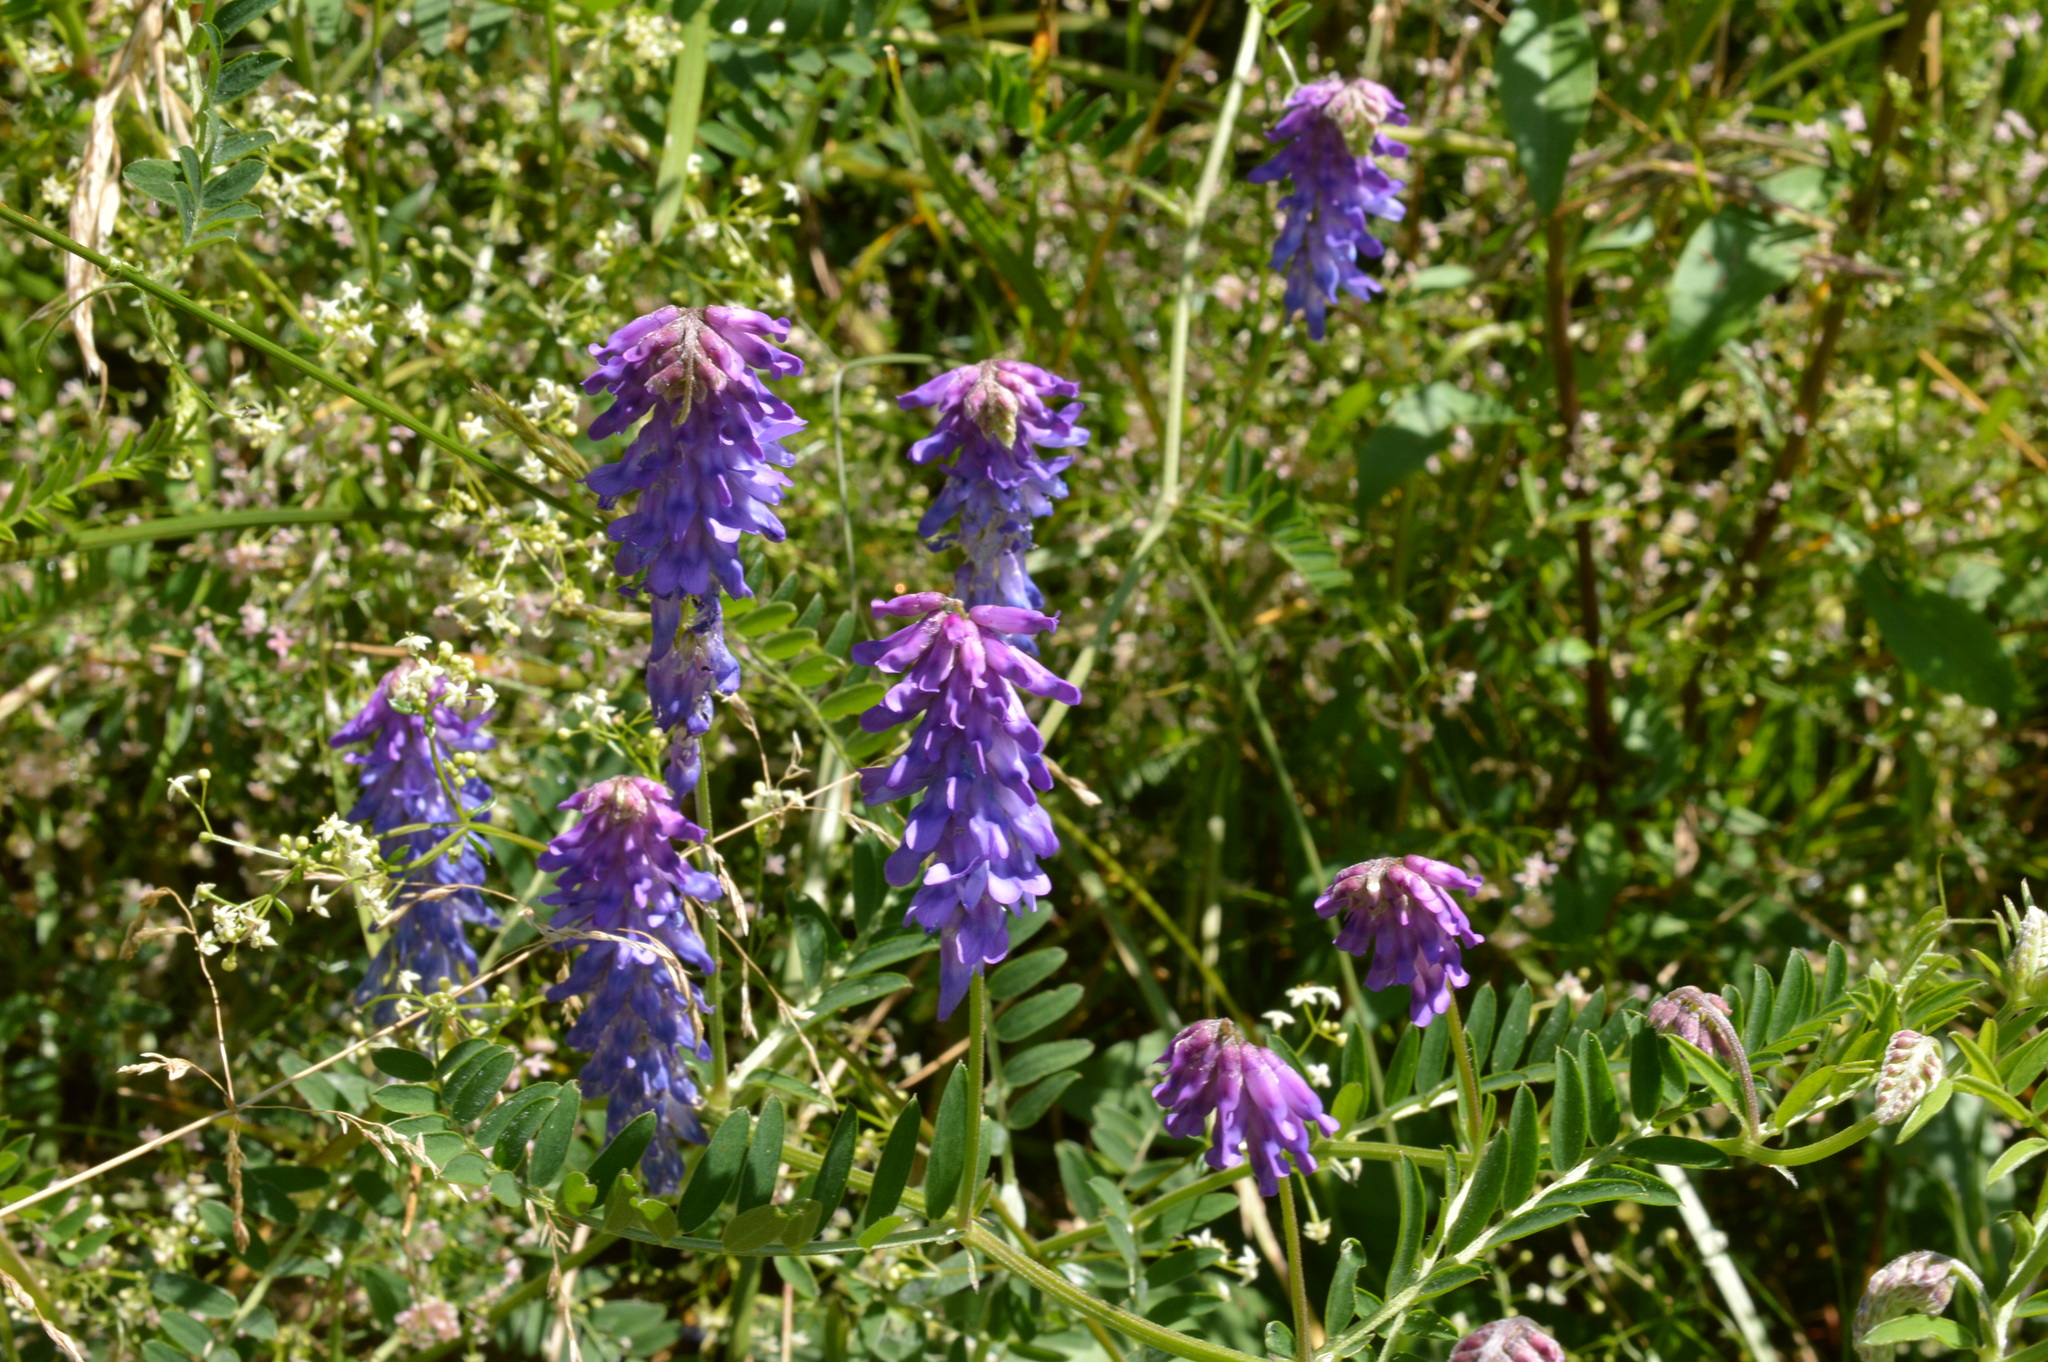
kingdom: Plantae
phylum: Tracheophyta
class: Magnoliopsida
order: Fabales
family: Fabaceae
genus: Vicia
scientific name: Vicia cracca
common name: Bird vetch
